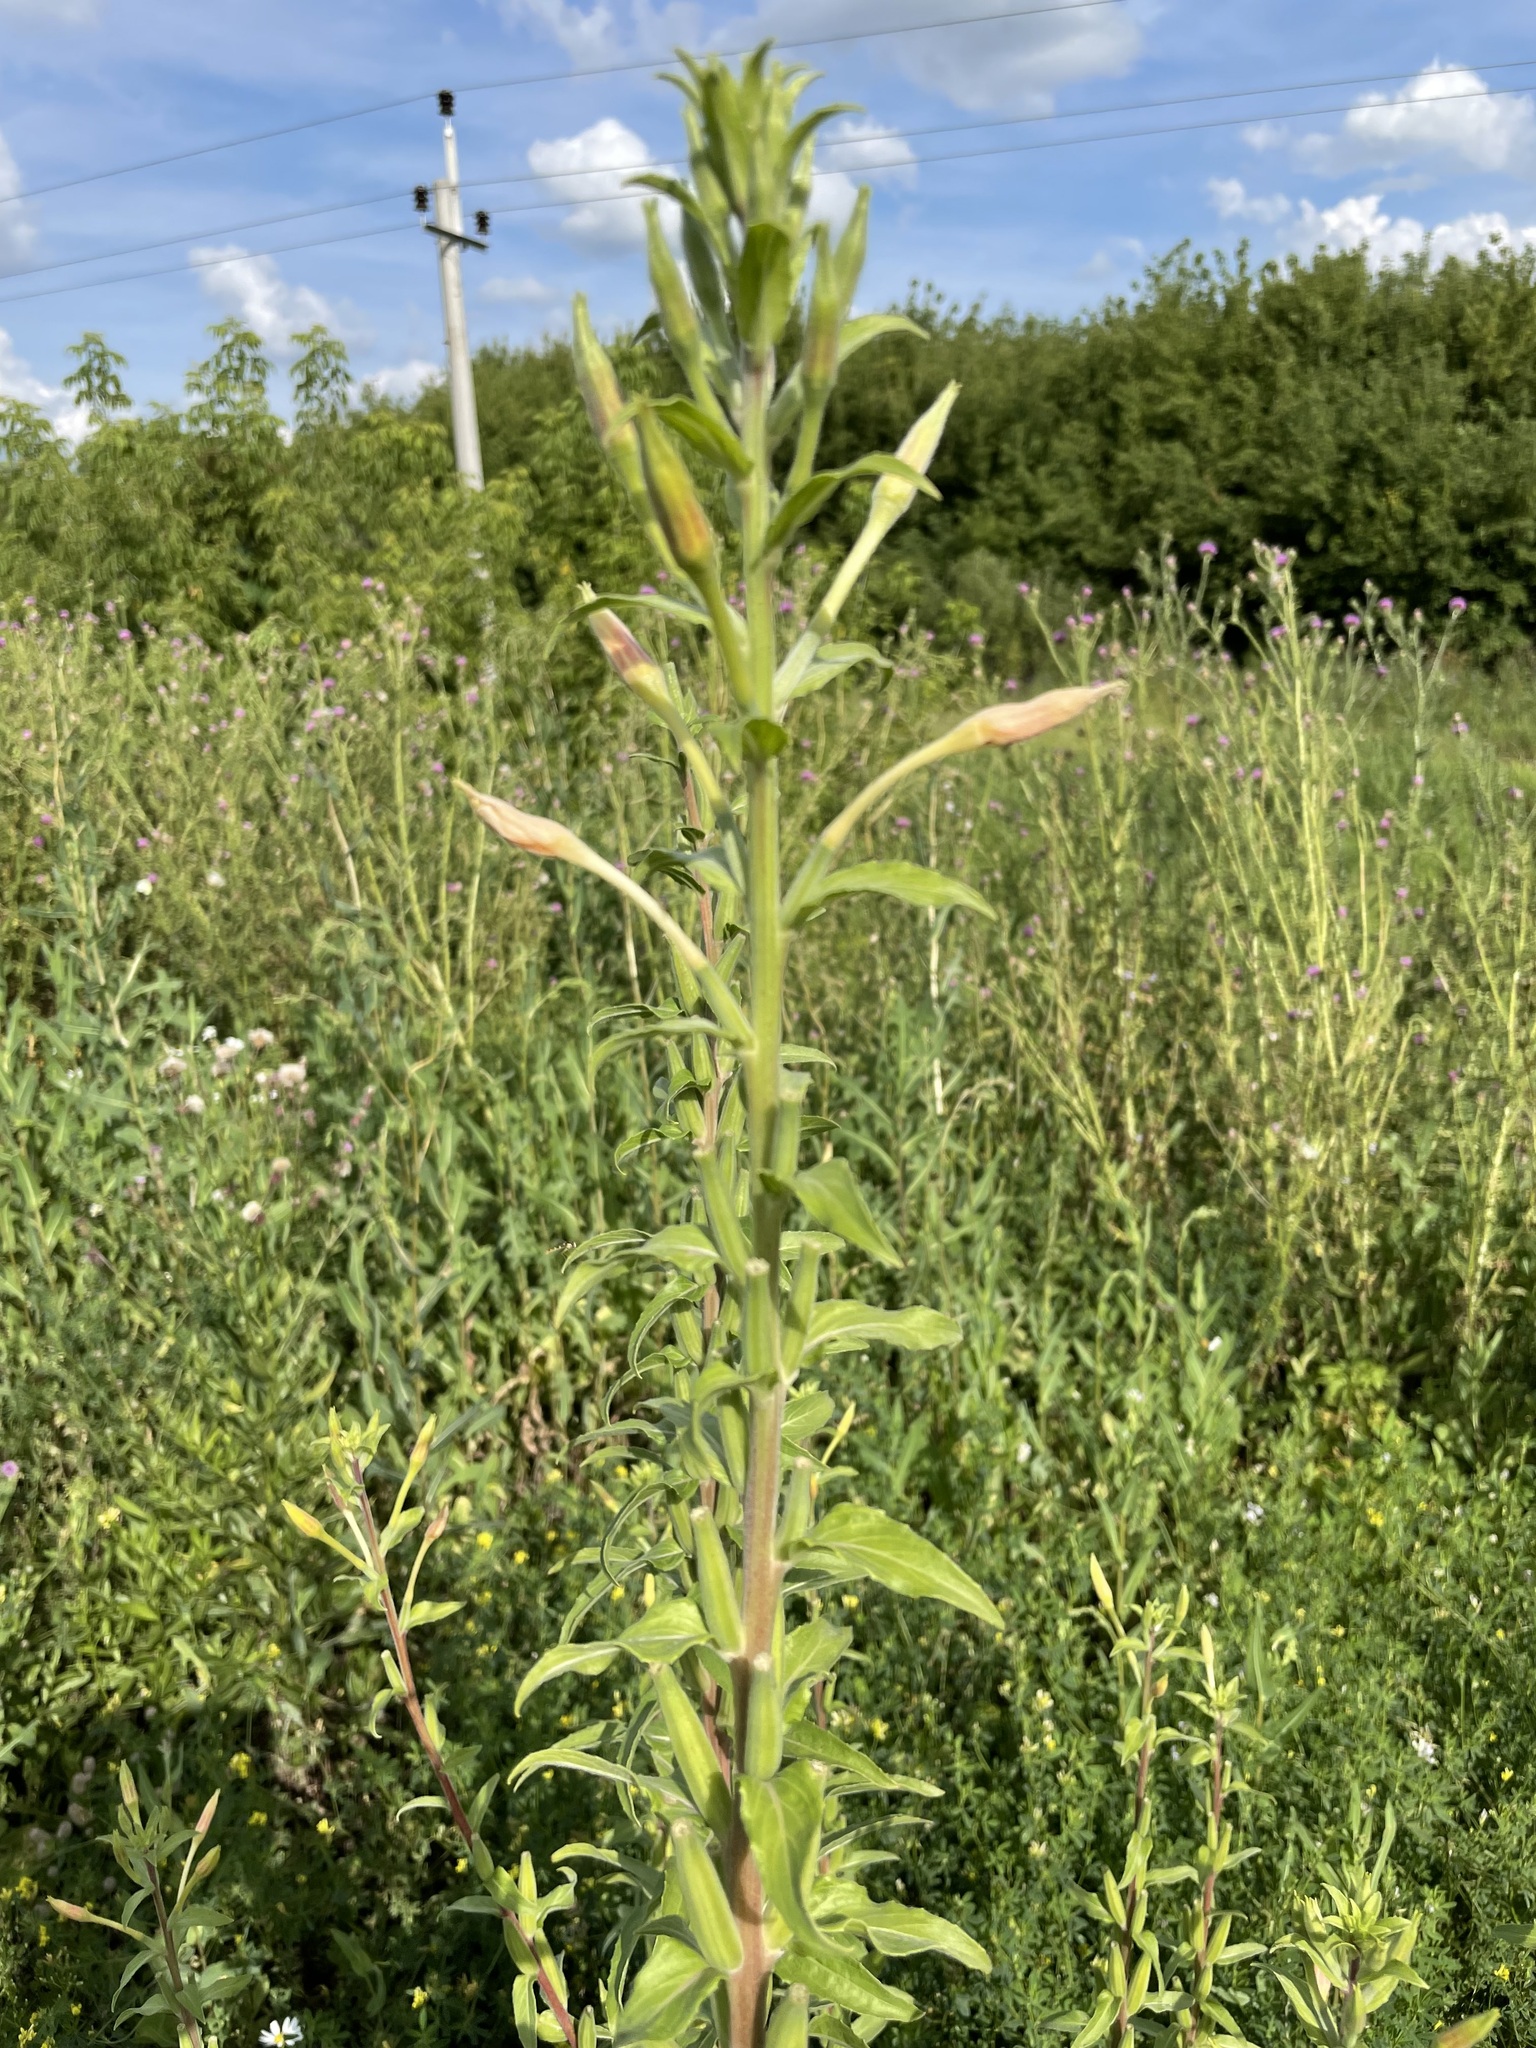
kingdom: Plantae
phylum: Tracheophyta
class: Magnoliopsida
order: Myrtales
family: Onagraceae
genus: Oenothera
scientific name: Oenothera villosa
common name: Hairy evening-primrose
